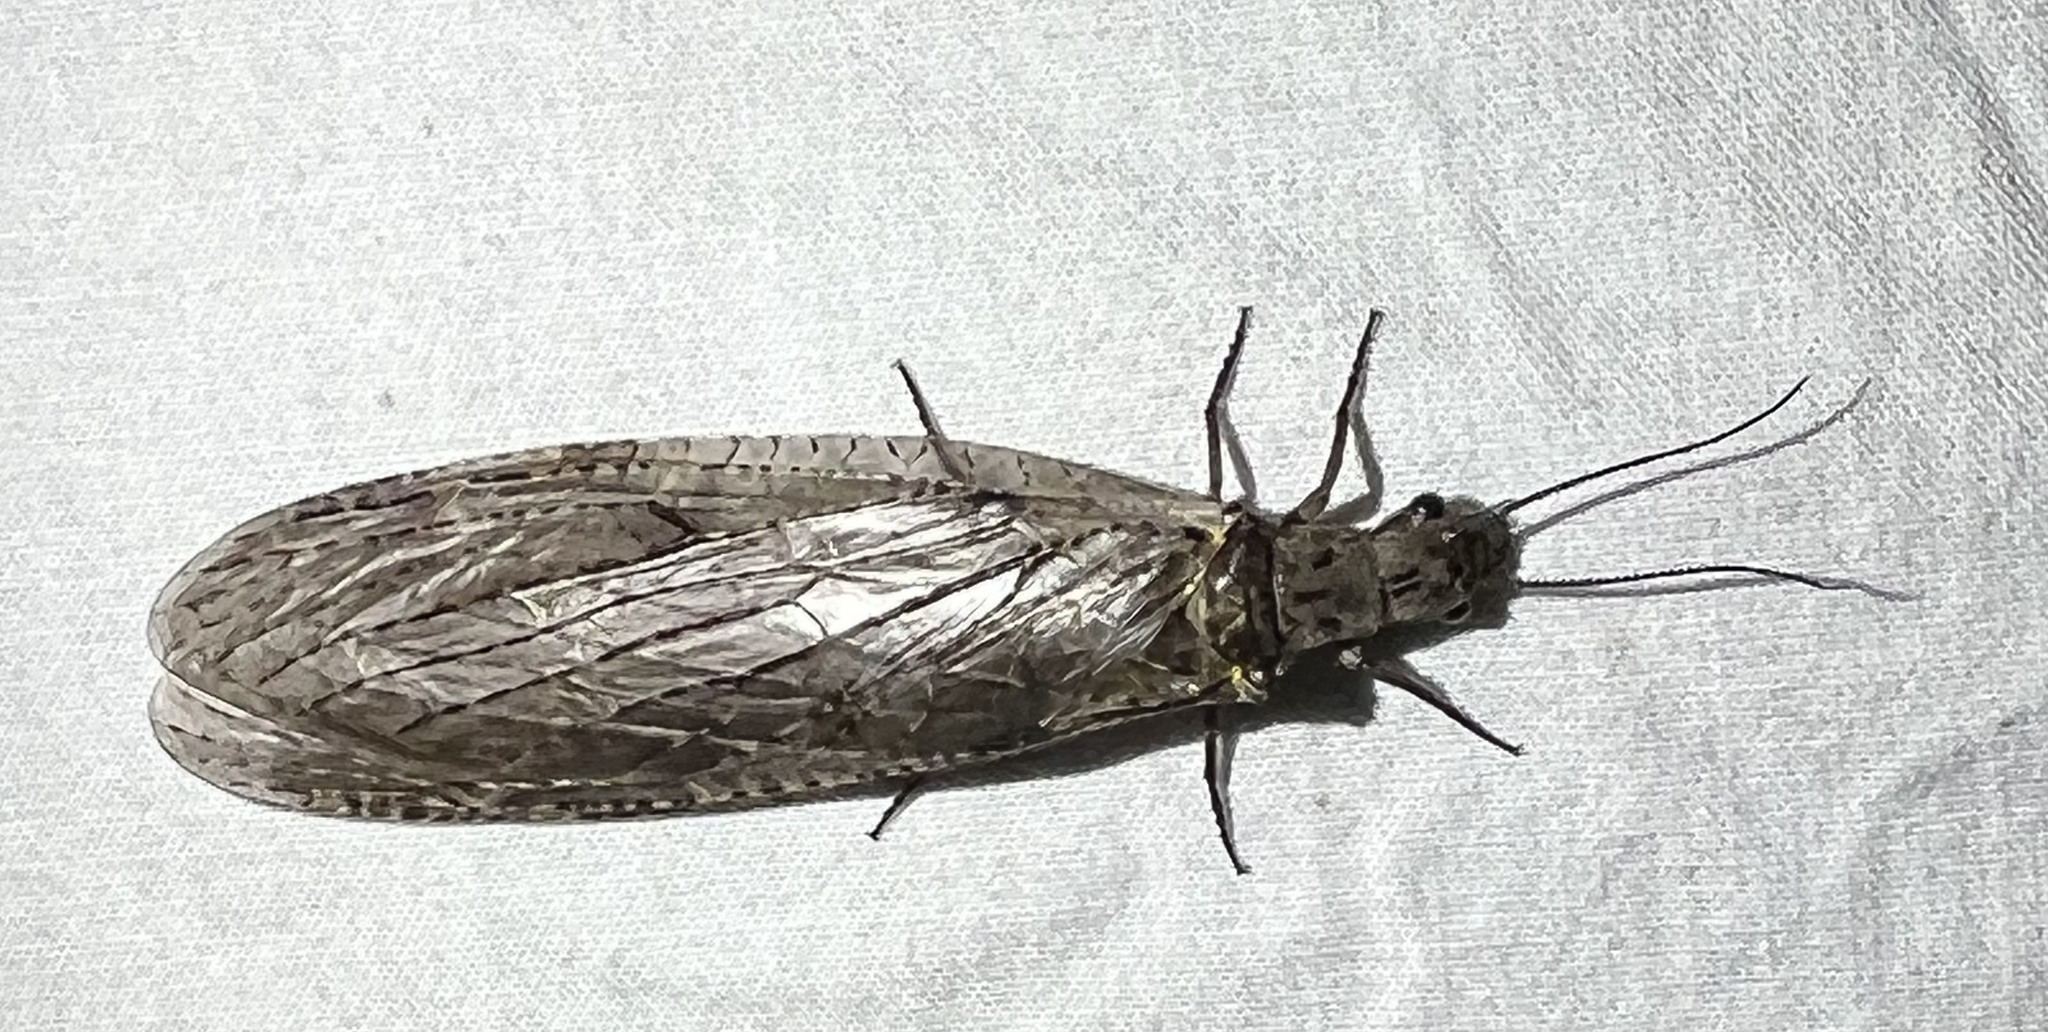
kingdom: Animalia
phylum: Arthropoda
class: Insecta
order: Megaloptera
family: Corydalidae
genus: Chauliodes
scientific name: Chauliodes rastricornis
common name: Spring fishfly
